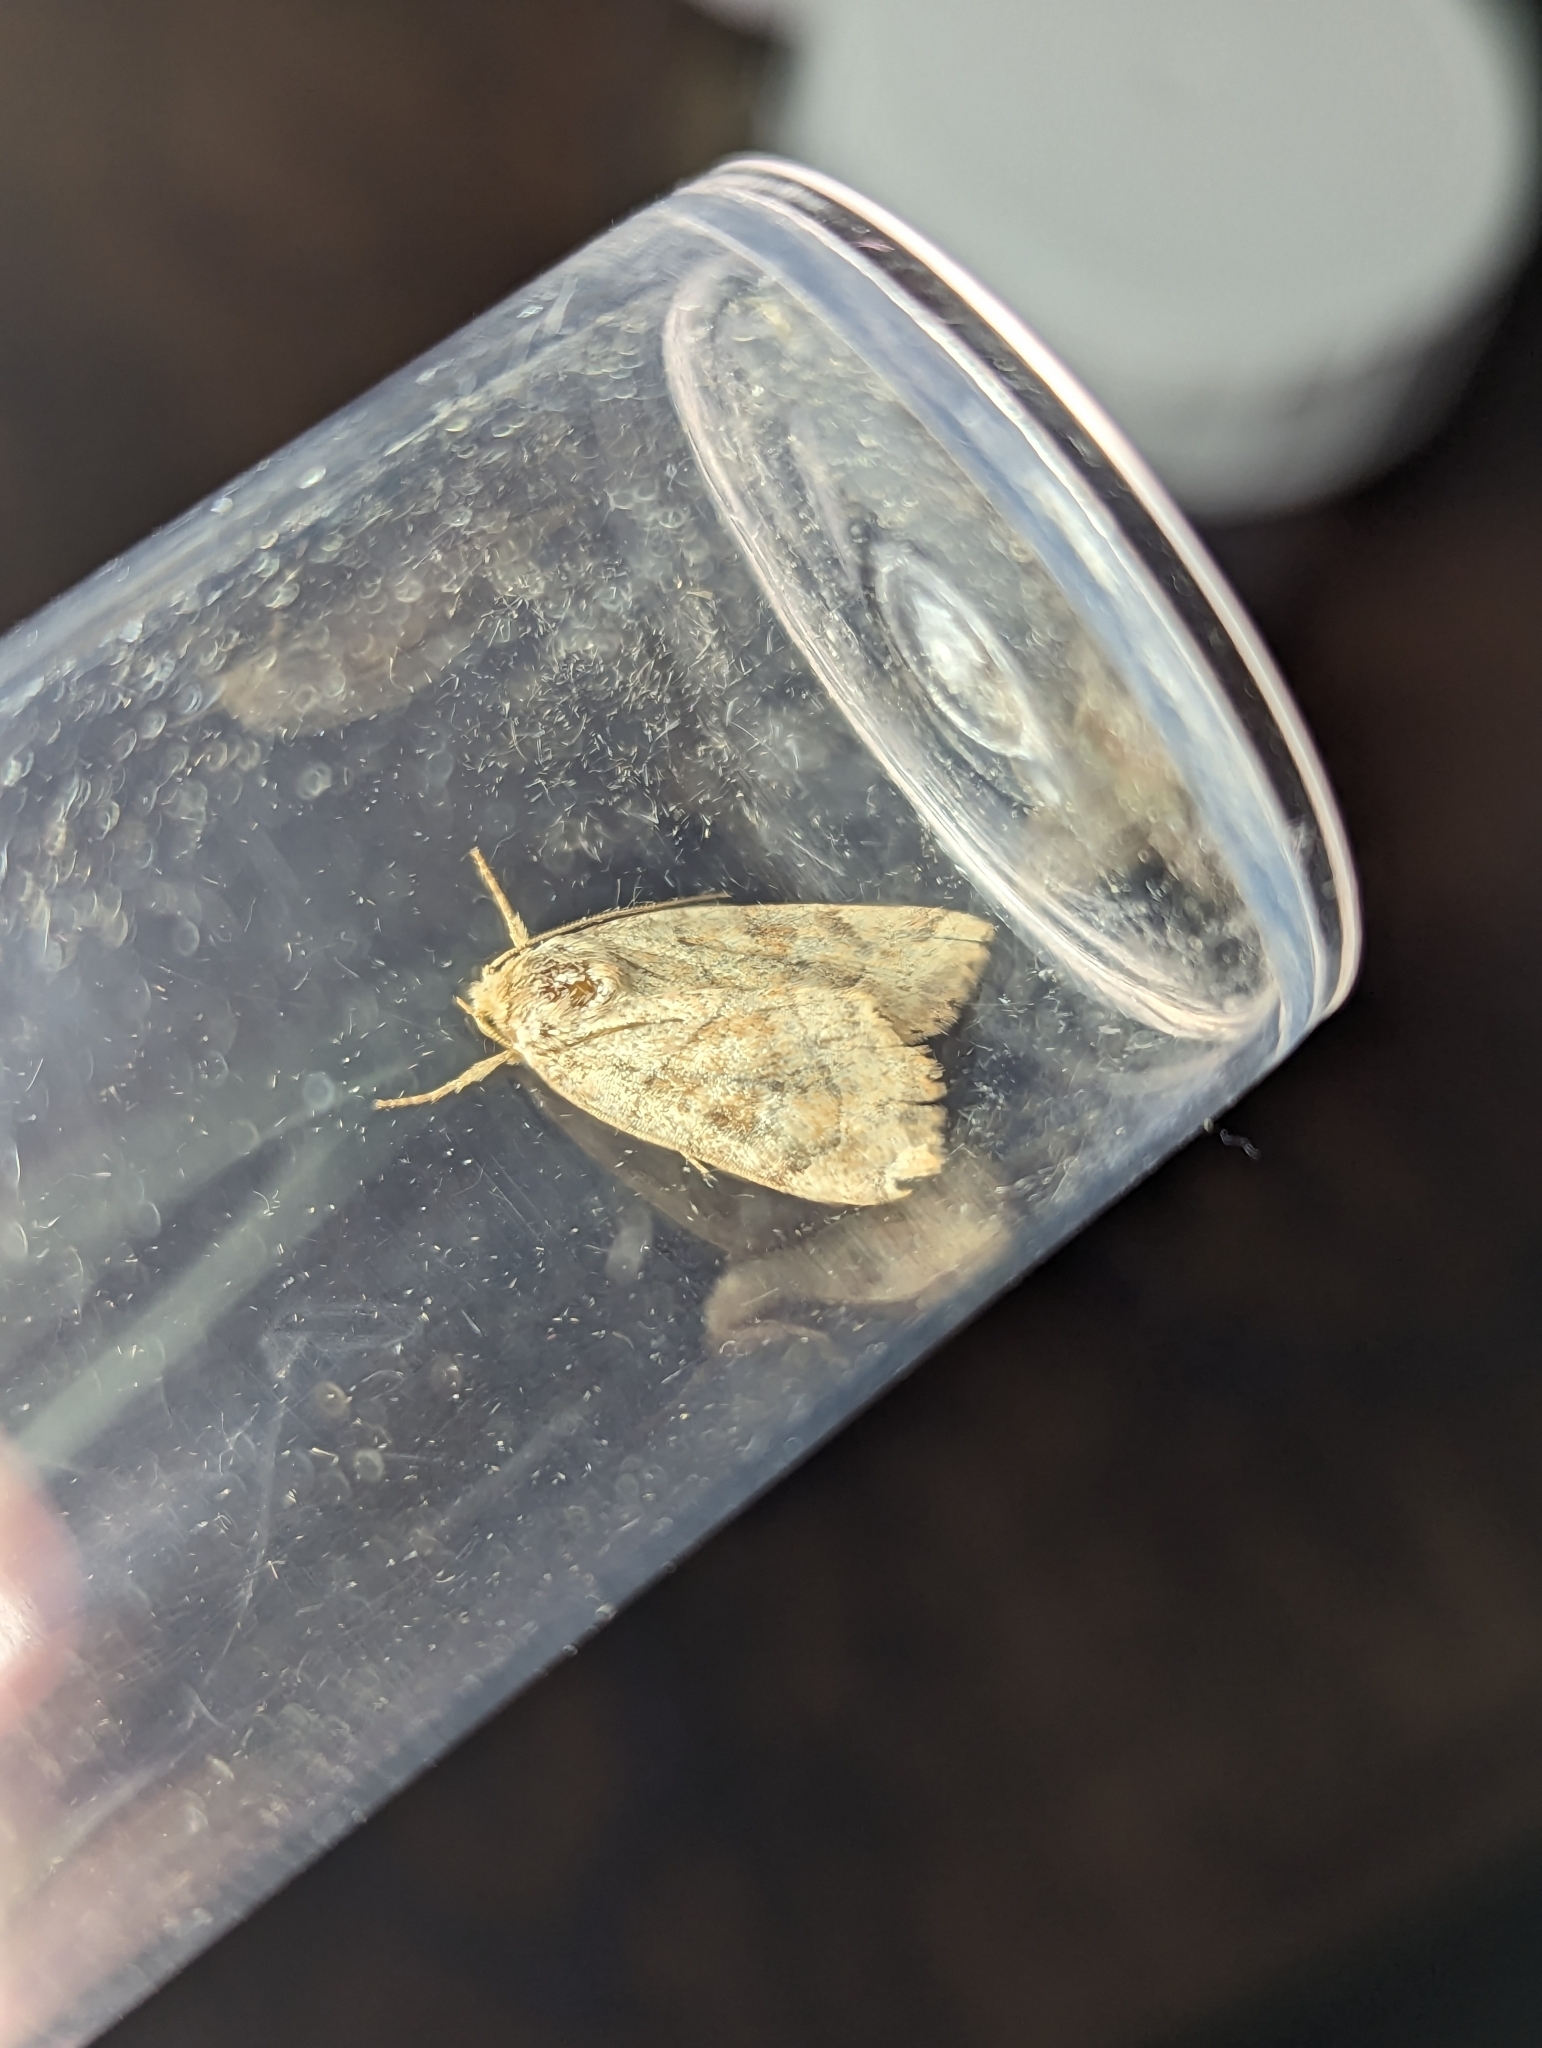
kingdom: Animalia
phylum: Arthropoda
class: Insecta
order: Lepidoptera
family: Noctuidae
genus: Cosmia
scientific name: Cosmia trapezina
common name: Dun-bar
